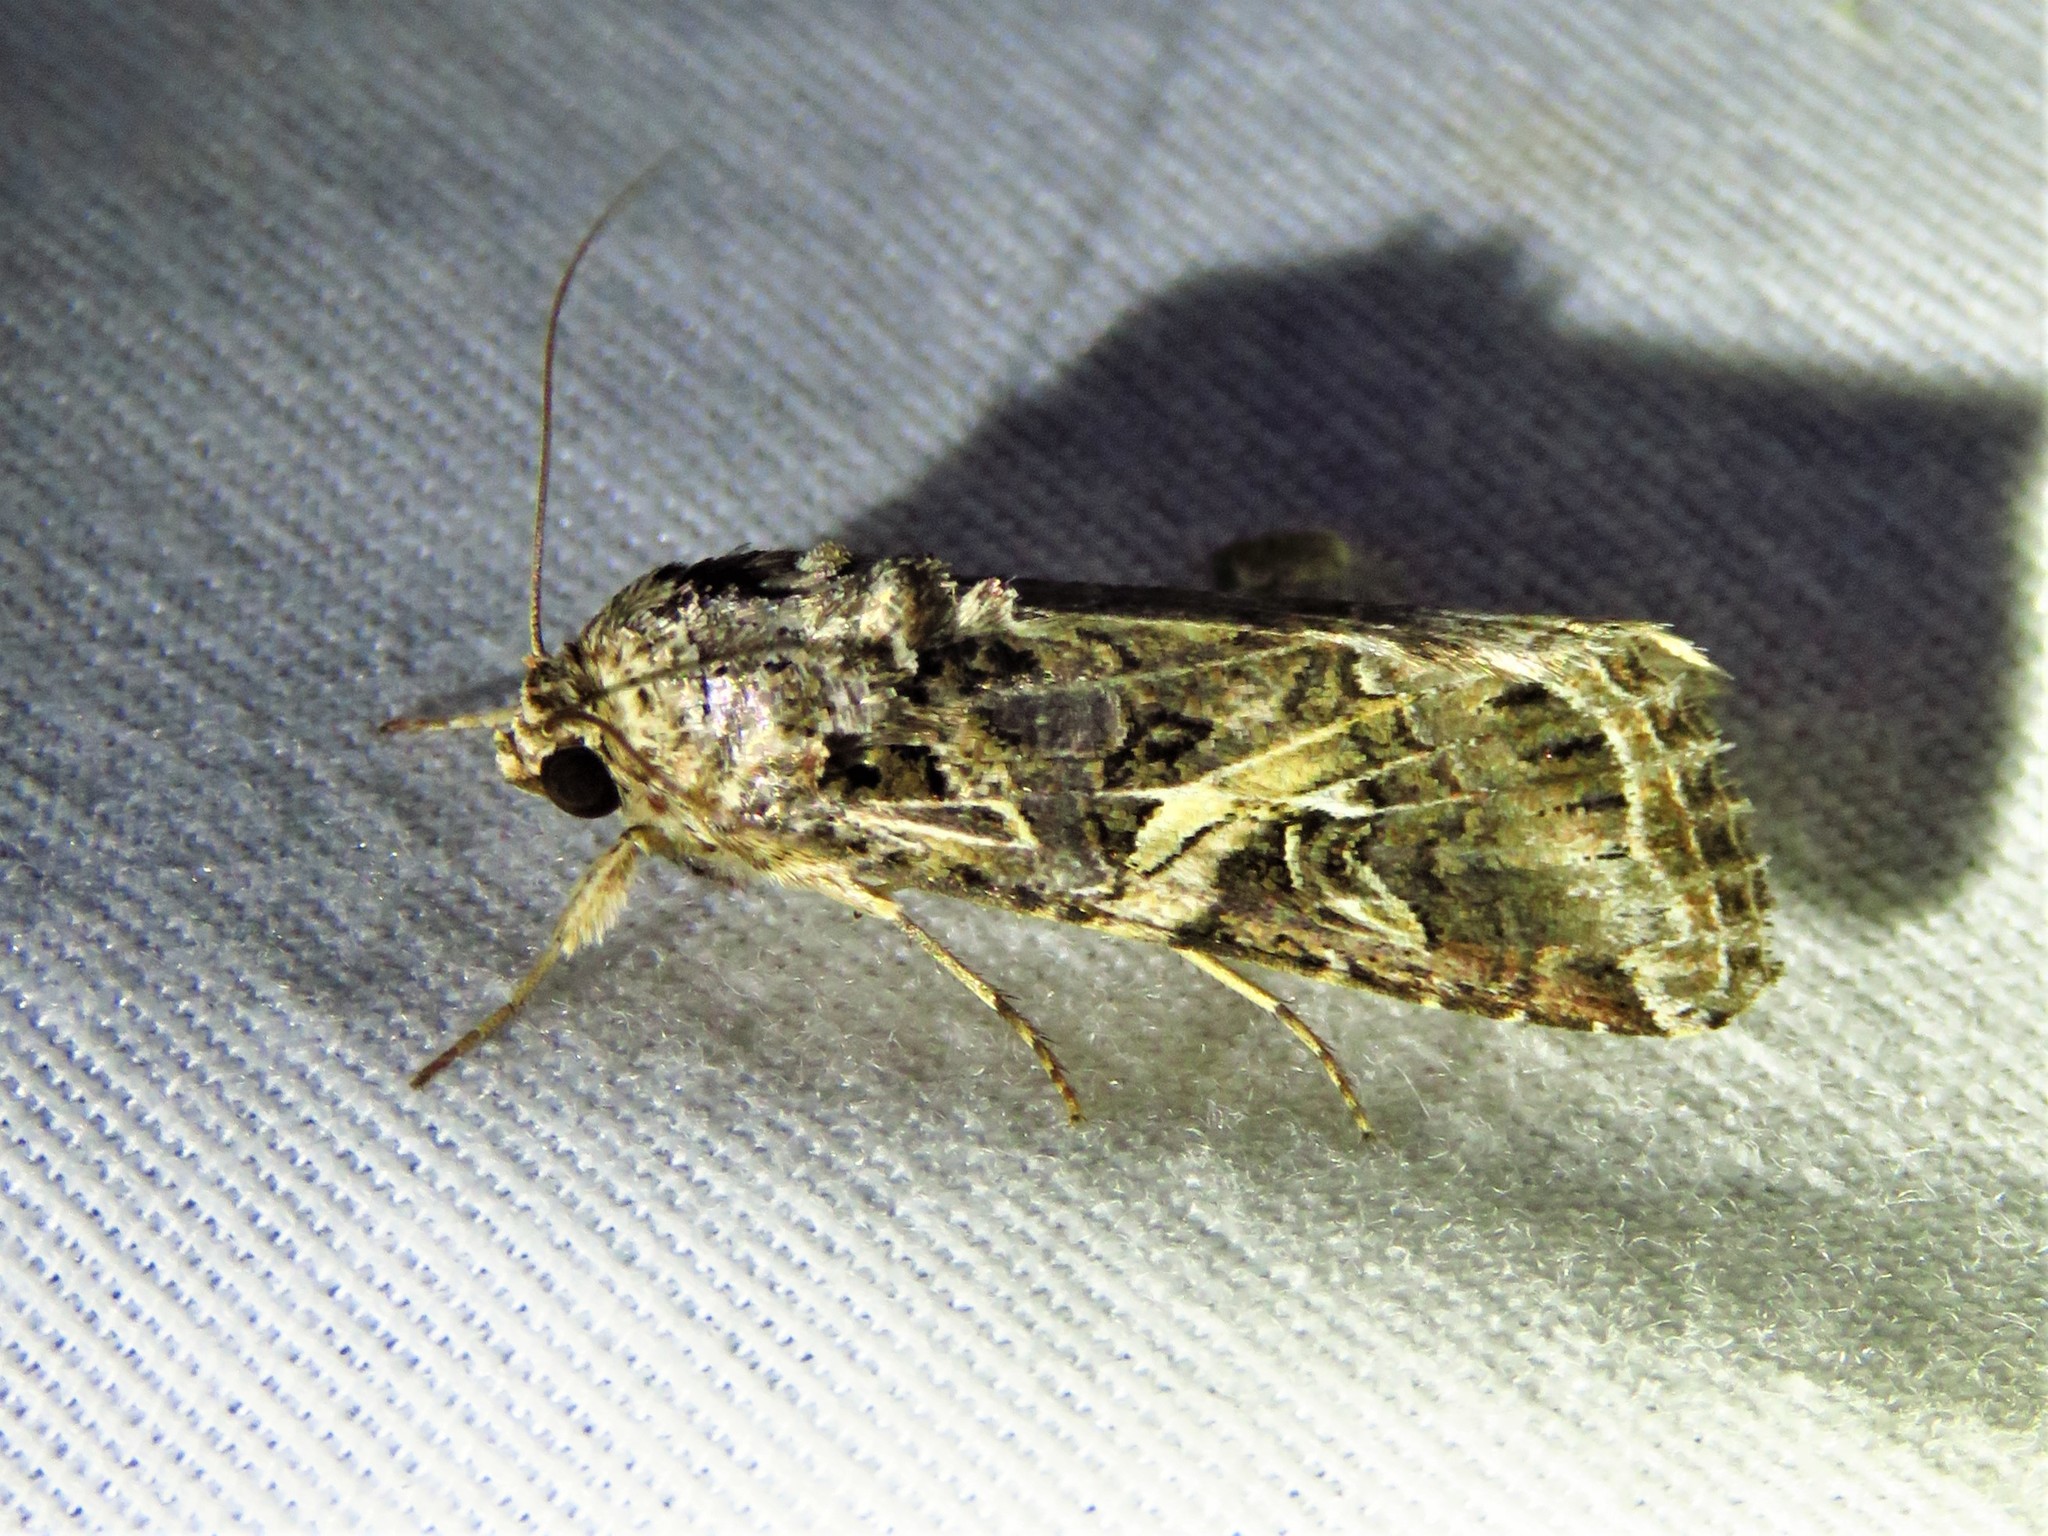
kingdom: Animalia
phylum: Arthropoda
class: Insecta
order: Lepidoptera
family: Noctuidae
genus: Spodoptera
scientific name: Spodoptera ornithogalli
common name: Yellow-striped armyworm
